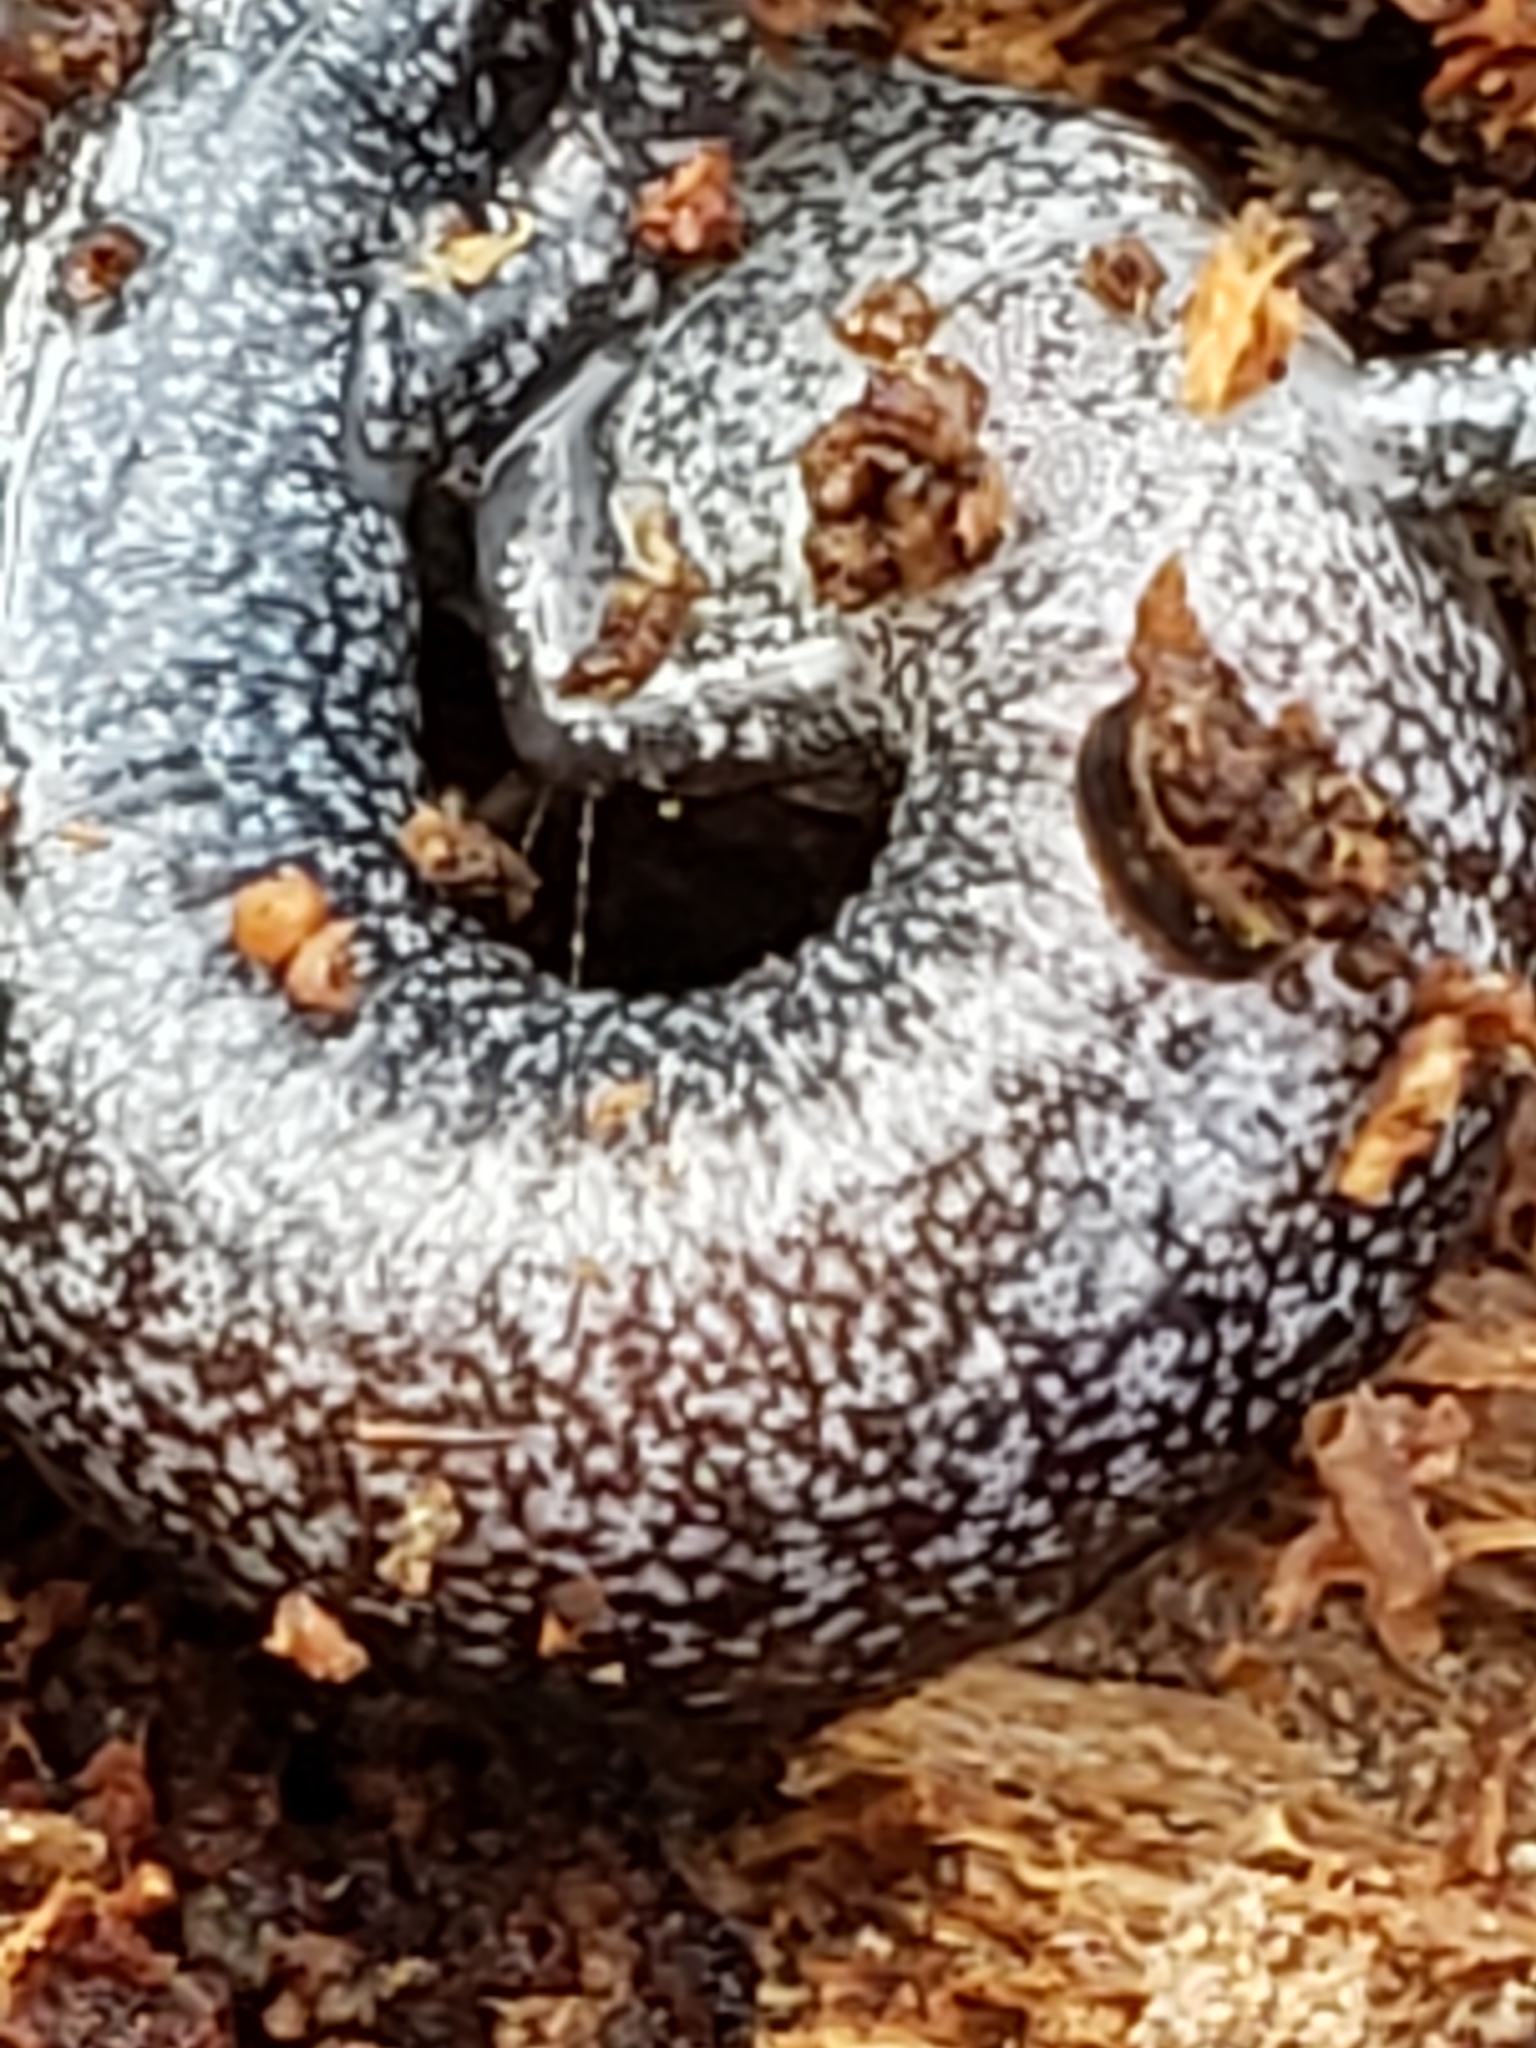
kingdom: Animalia
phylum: Chordata
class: Amphibia
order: Caudata
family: Plethodontidae
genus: Plethodon
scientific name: Plethodon cinereus
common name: Redback salamander
